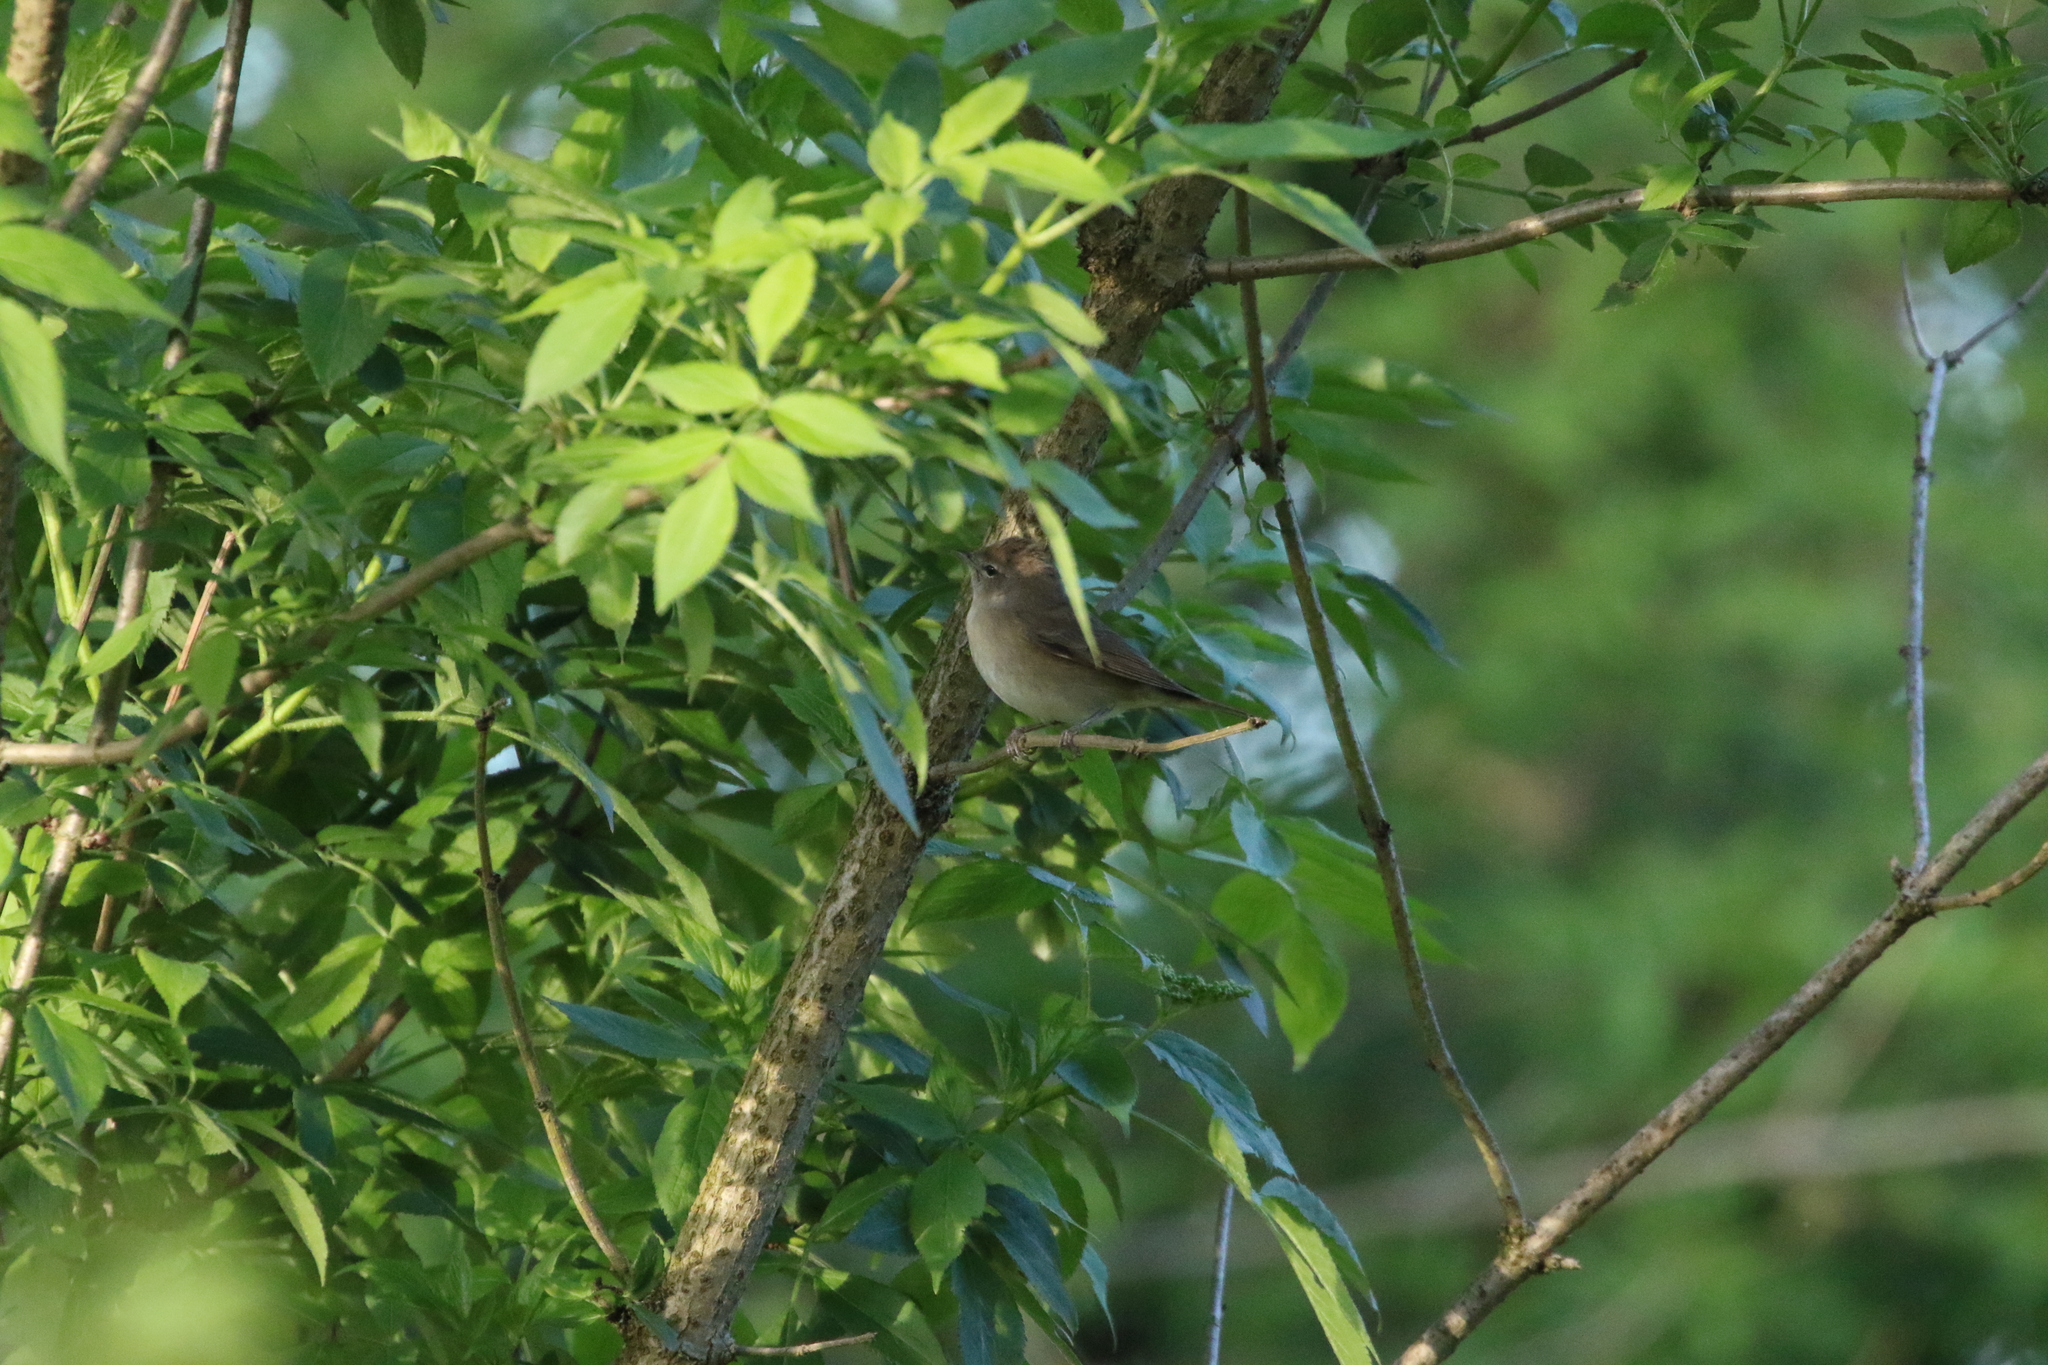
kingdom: Animalia
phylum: Chordata
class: Aves
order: Passeriformes
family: Sylviidae
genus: Sylvia
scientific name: Sylvia borin
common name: Garden warbler
